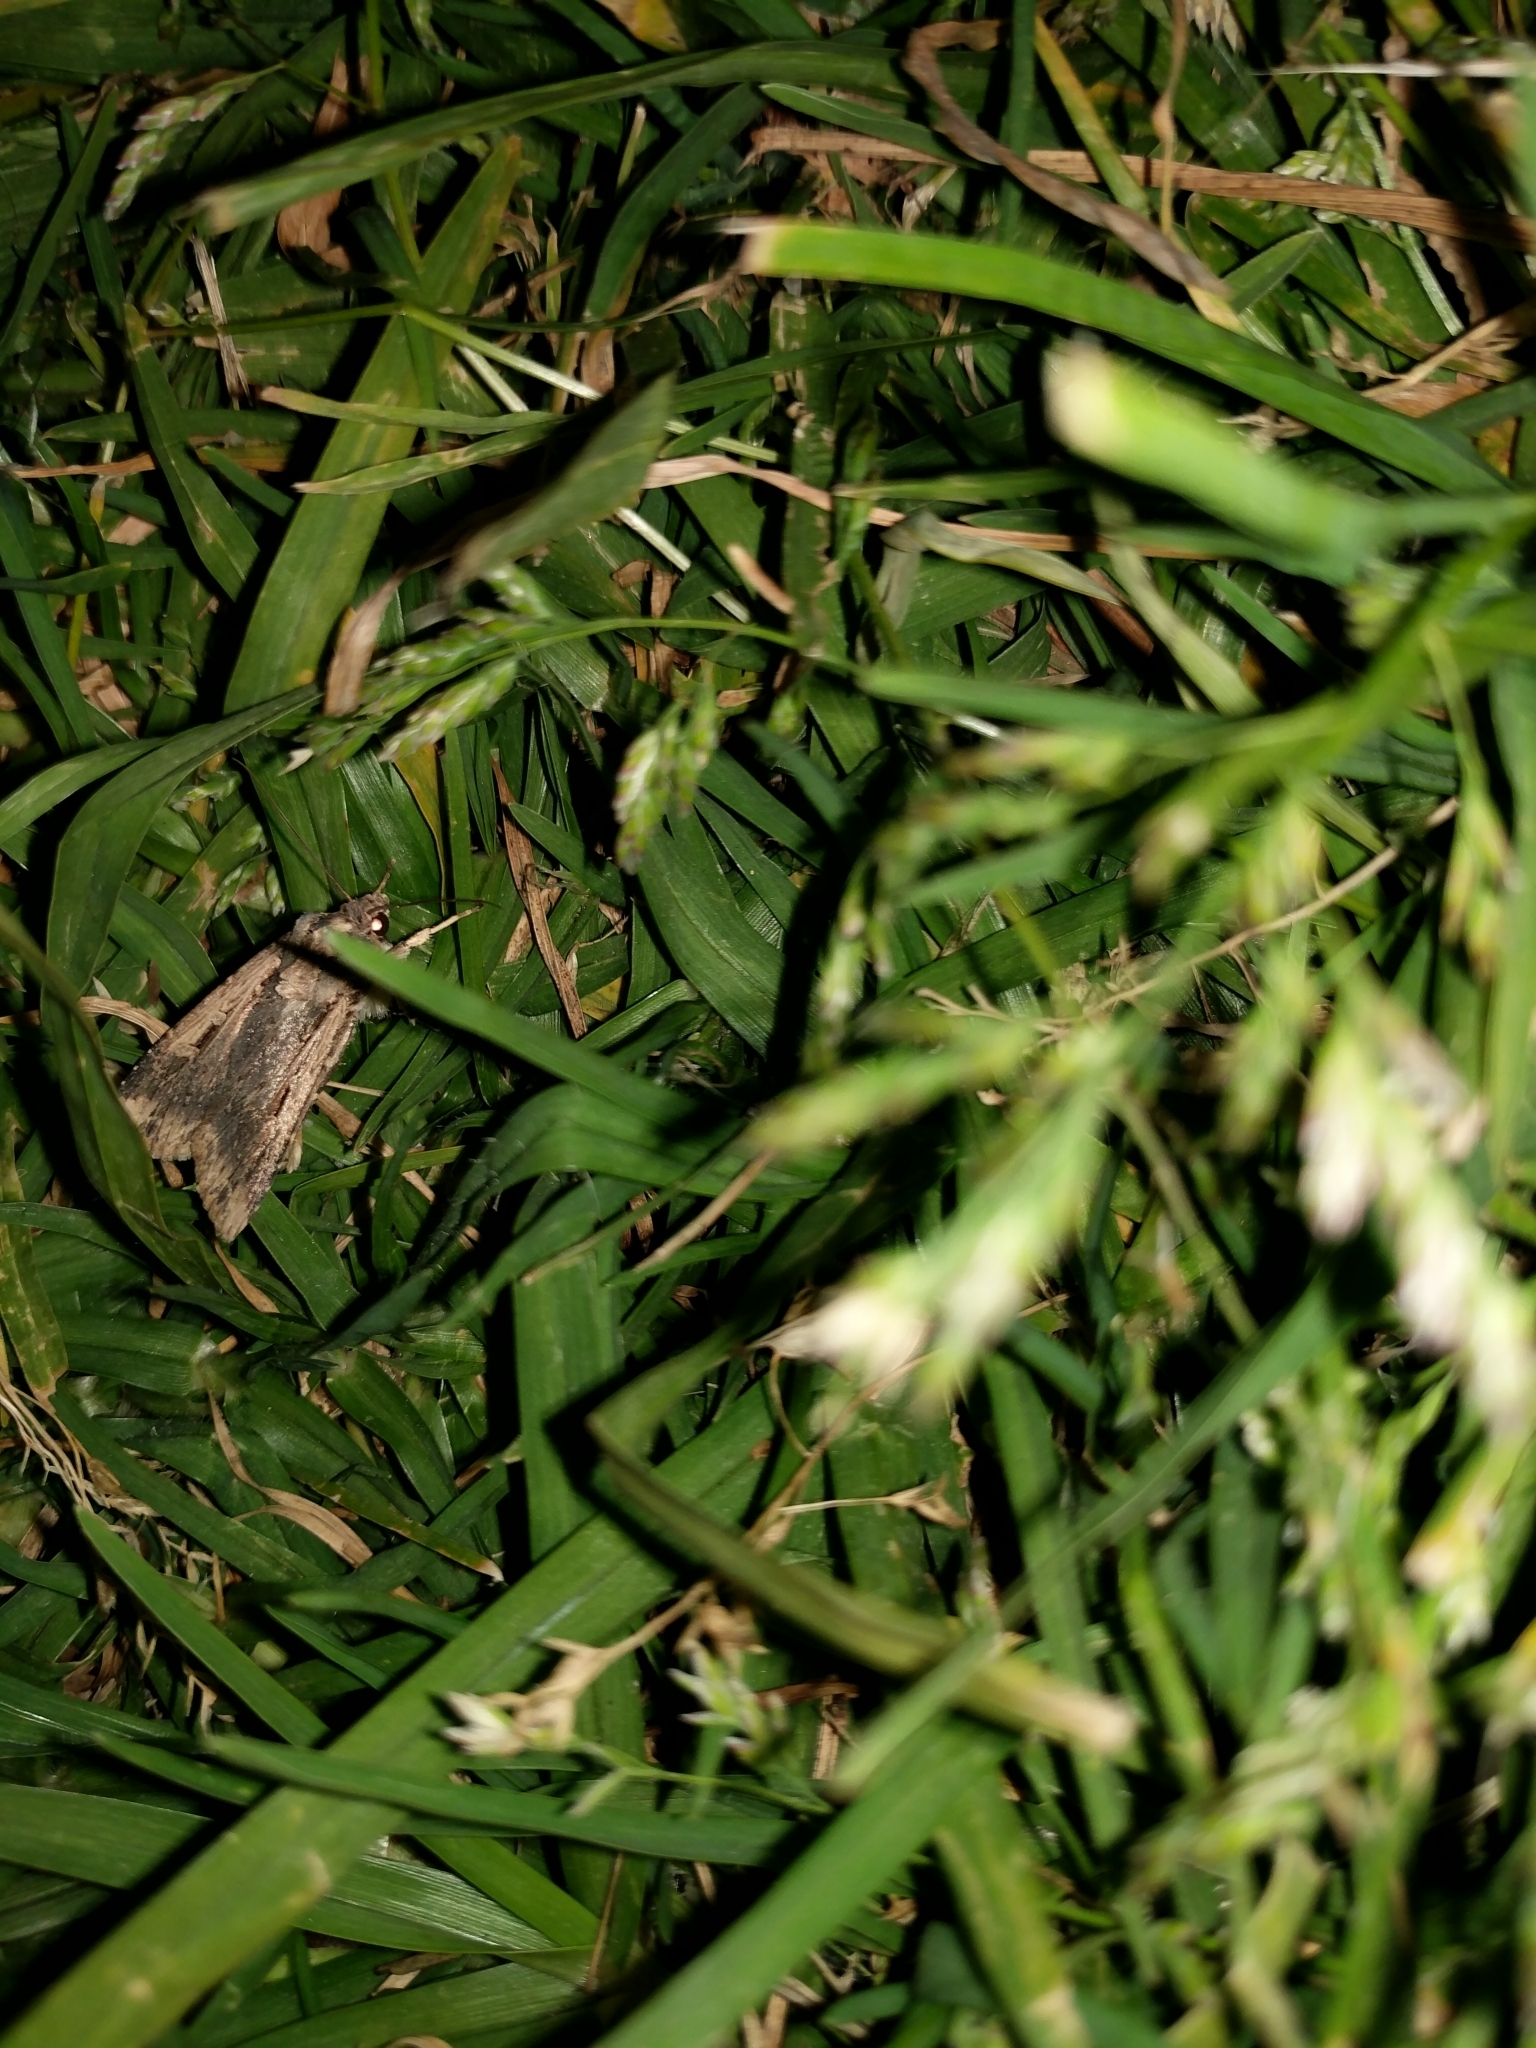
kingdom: Animalia
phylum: Arthropoda
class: Insecta
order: Lepidoptera
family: Noctuidae
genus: Feltia
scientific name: Feltia subterranea
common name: Granulate cutworm
